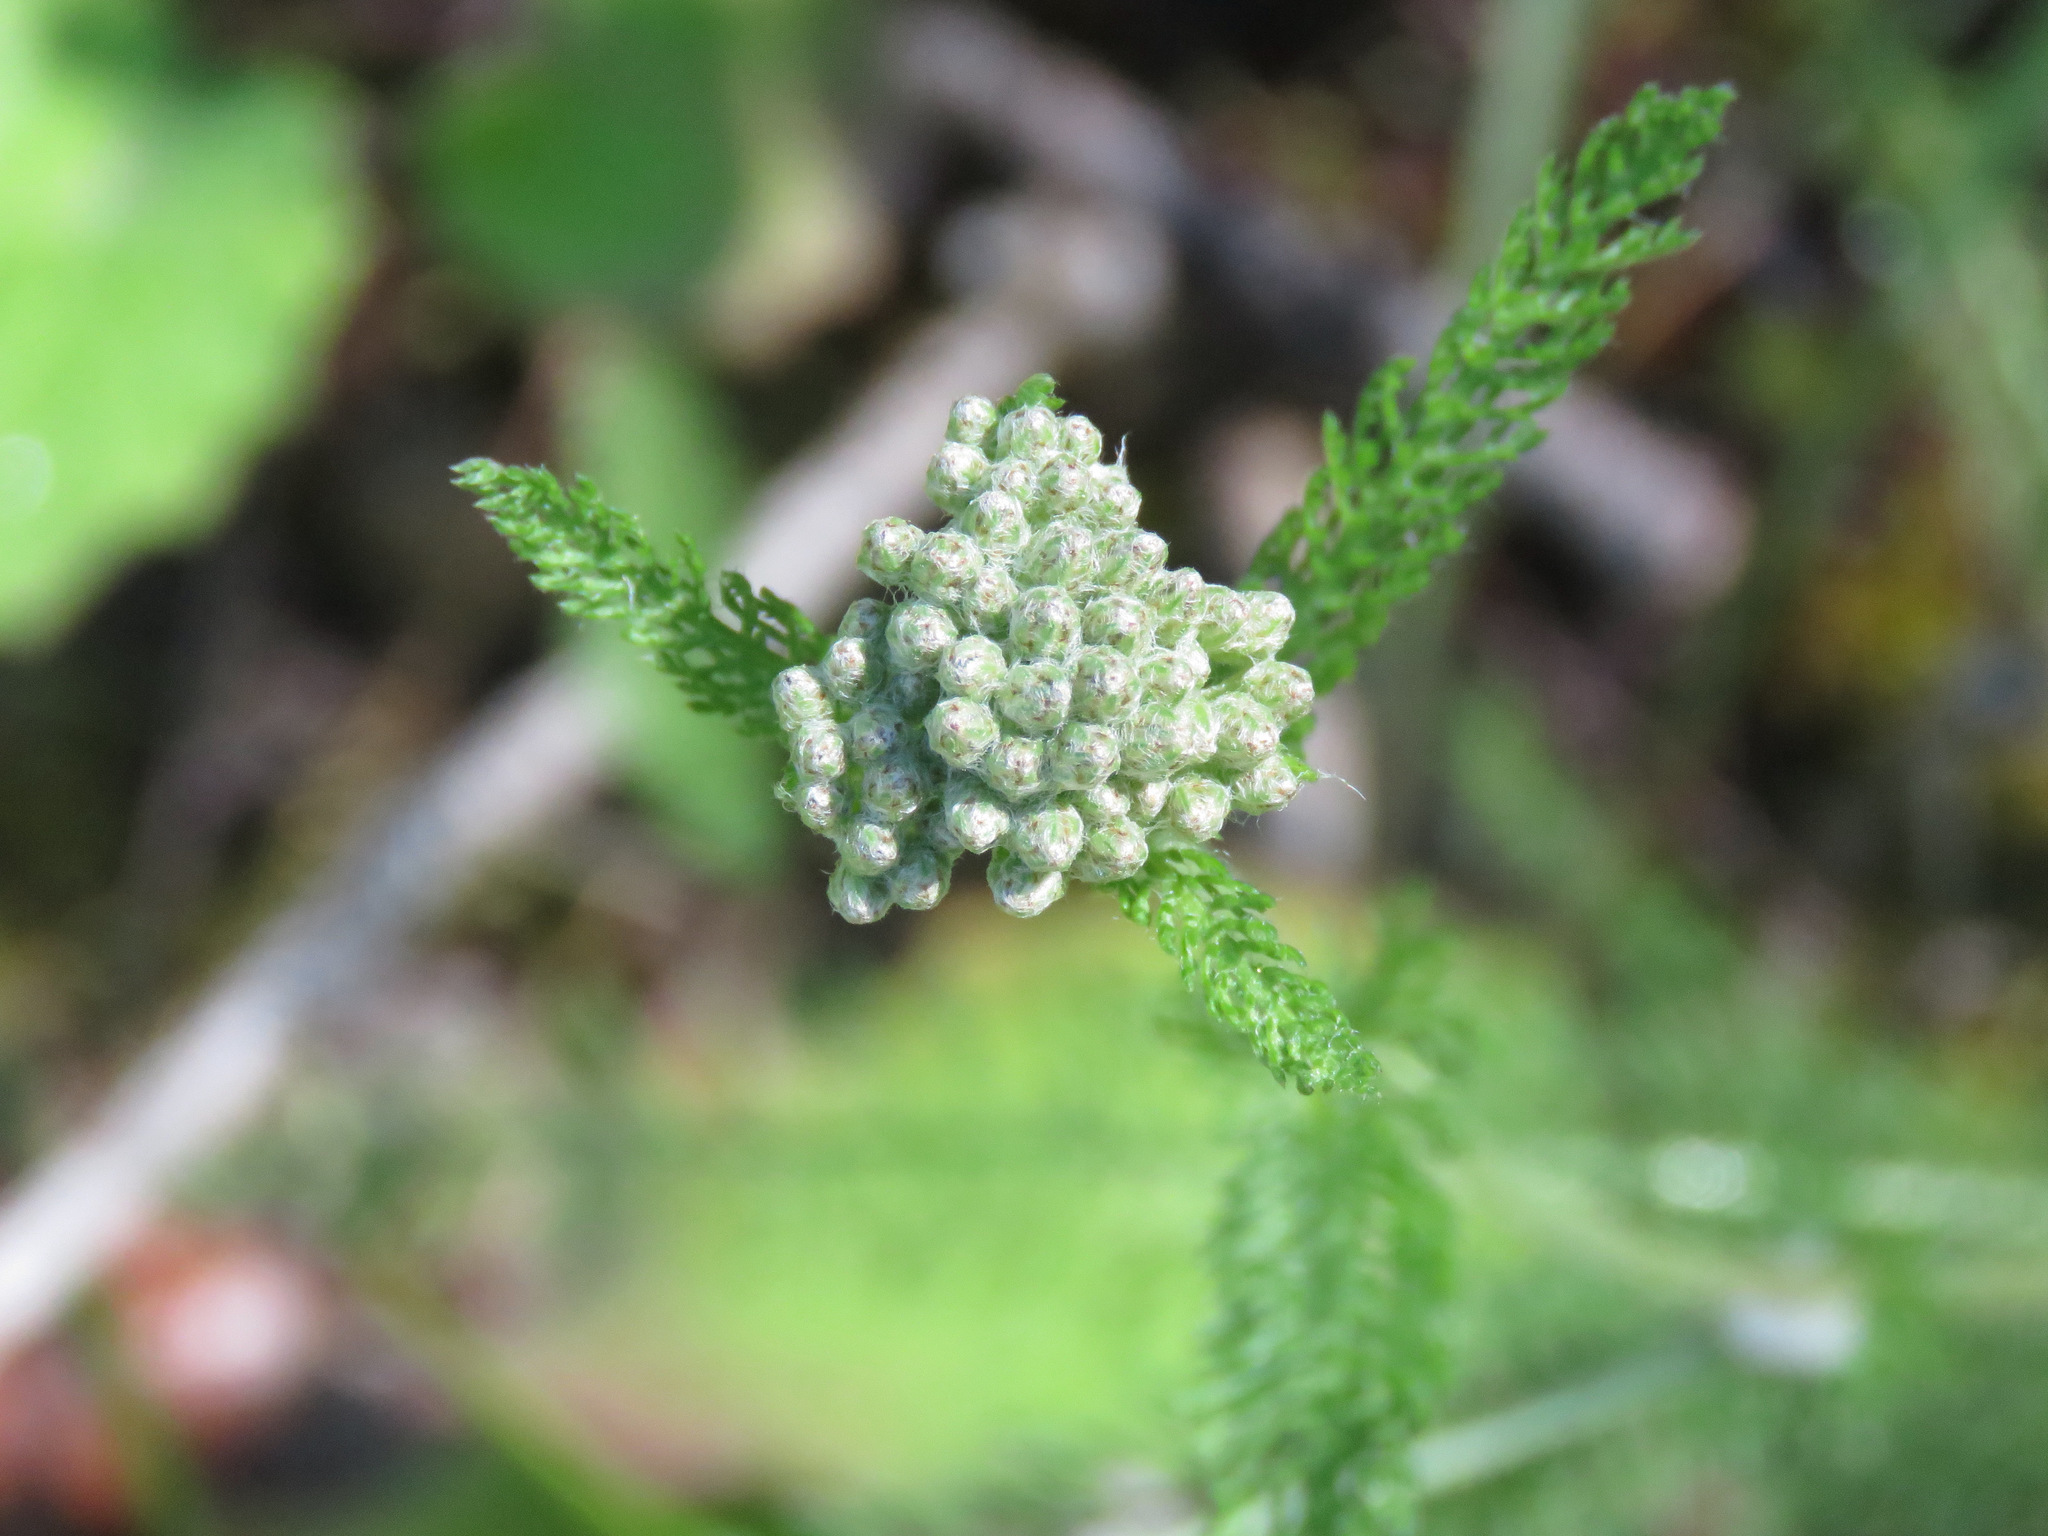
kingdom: Plantae
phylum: Tracheophyta
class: Magnoliopsida
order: Asterales
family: Asteraceae
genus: Achillea
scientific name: Achillea millefolium
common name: Yarrow
